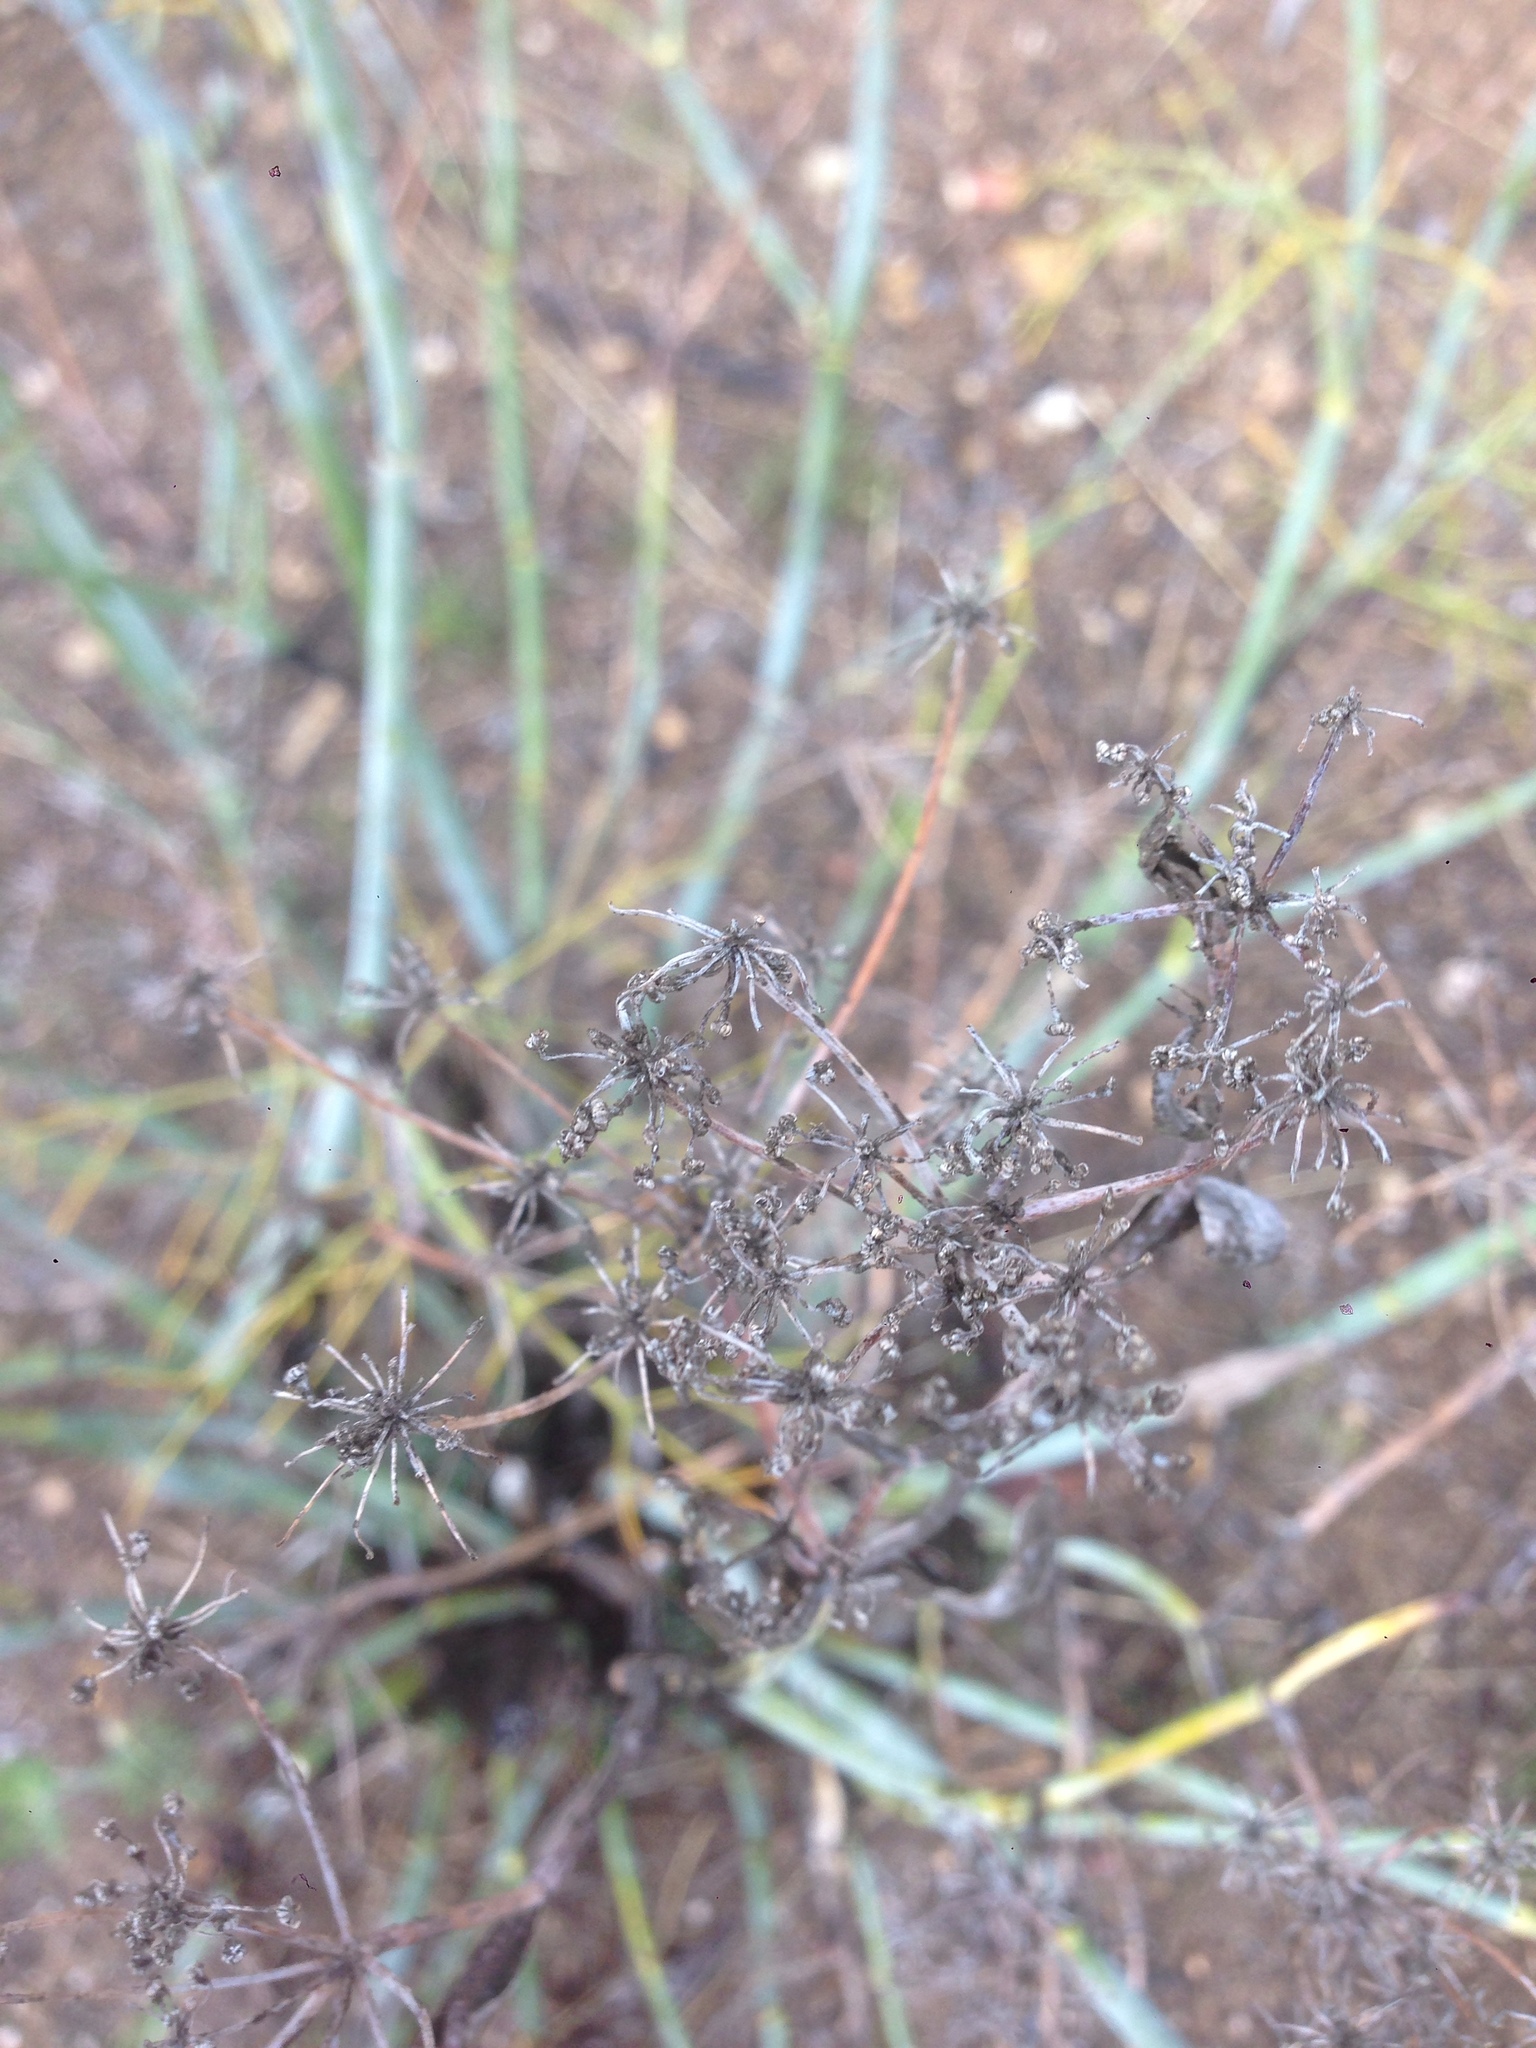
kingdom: Plantae
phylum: Tracheophyta
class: Magnoliopsida
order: Apiales
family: Apiaceae
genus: Foeniculum
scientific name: Foeniculum vulgare
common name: Fennel
